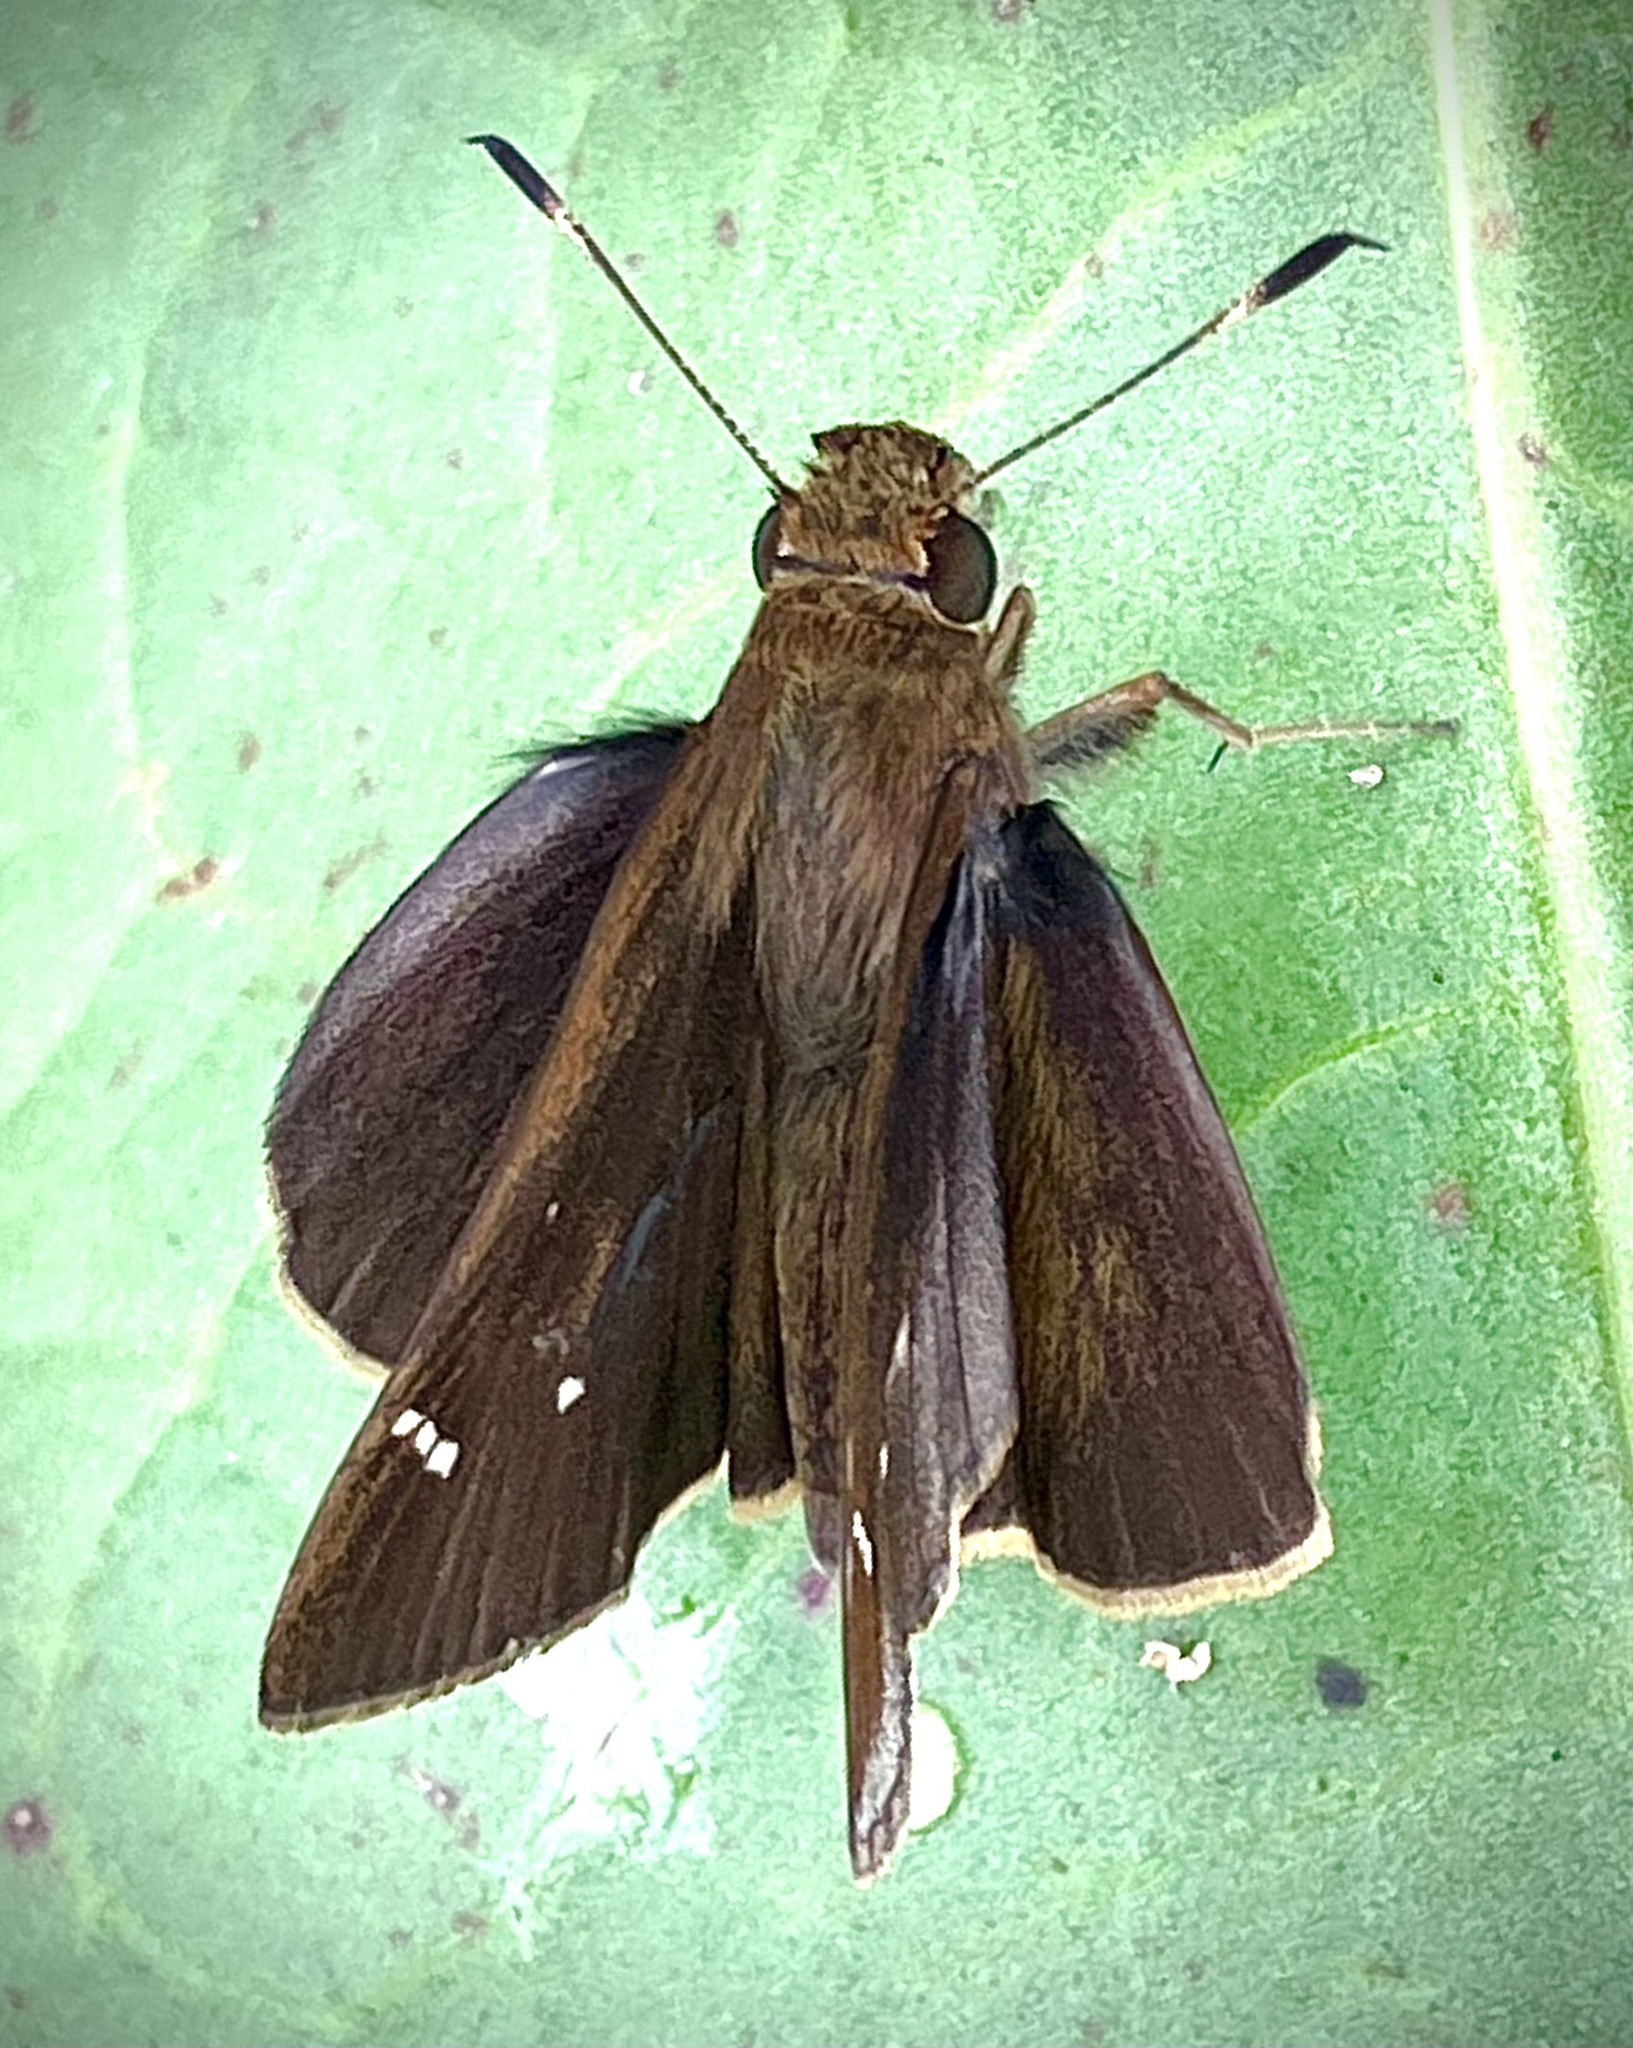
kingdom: Animalia
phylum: Arthropoda
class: Insecta
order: Lepidoptera
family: Hesperiidae
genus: Lerema
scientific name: Lerema accius
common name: Clouded skipper
